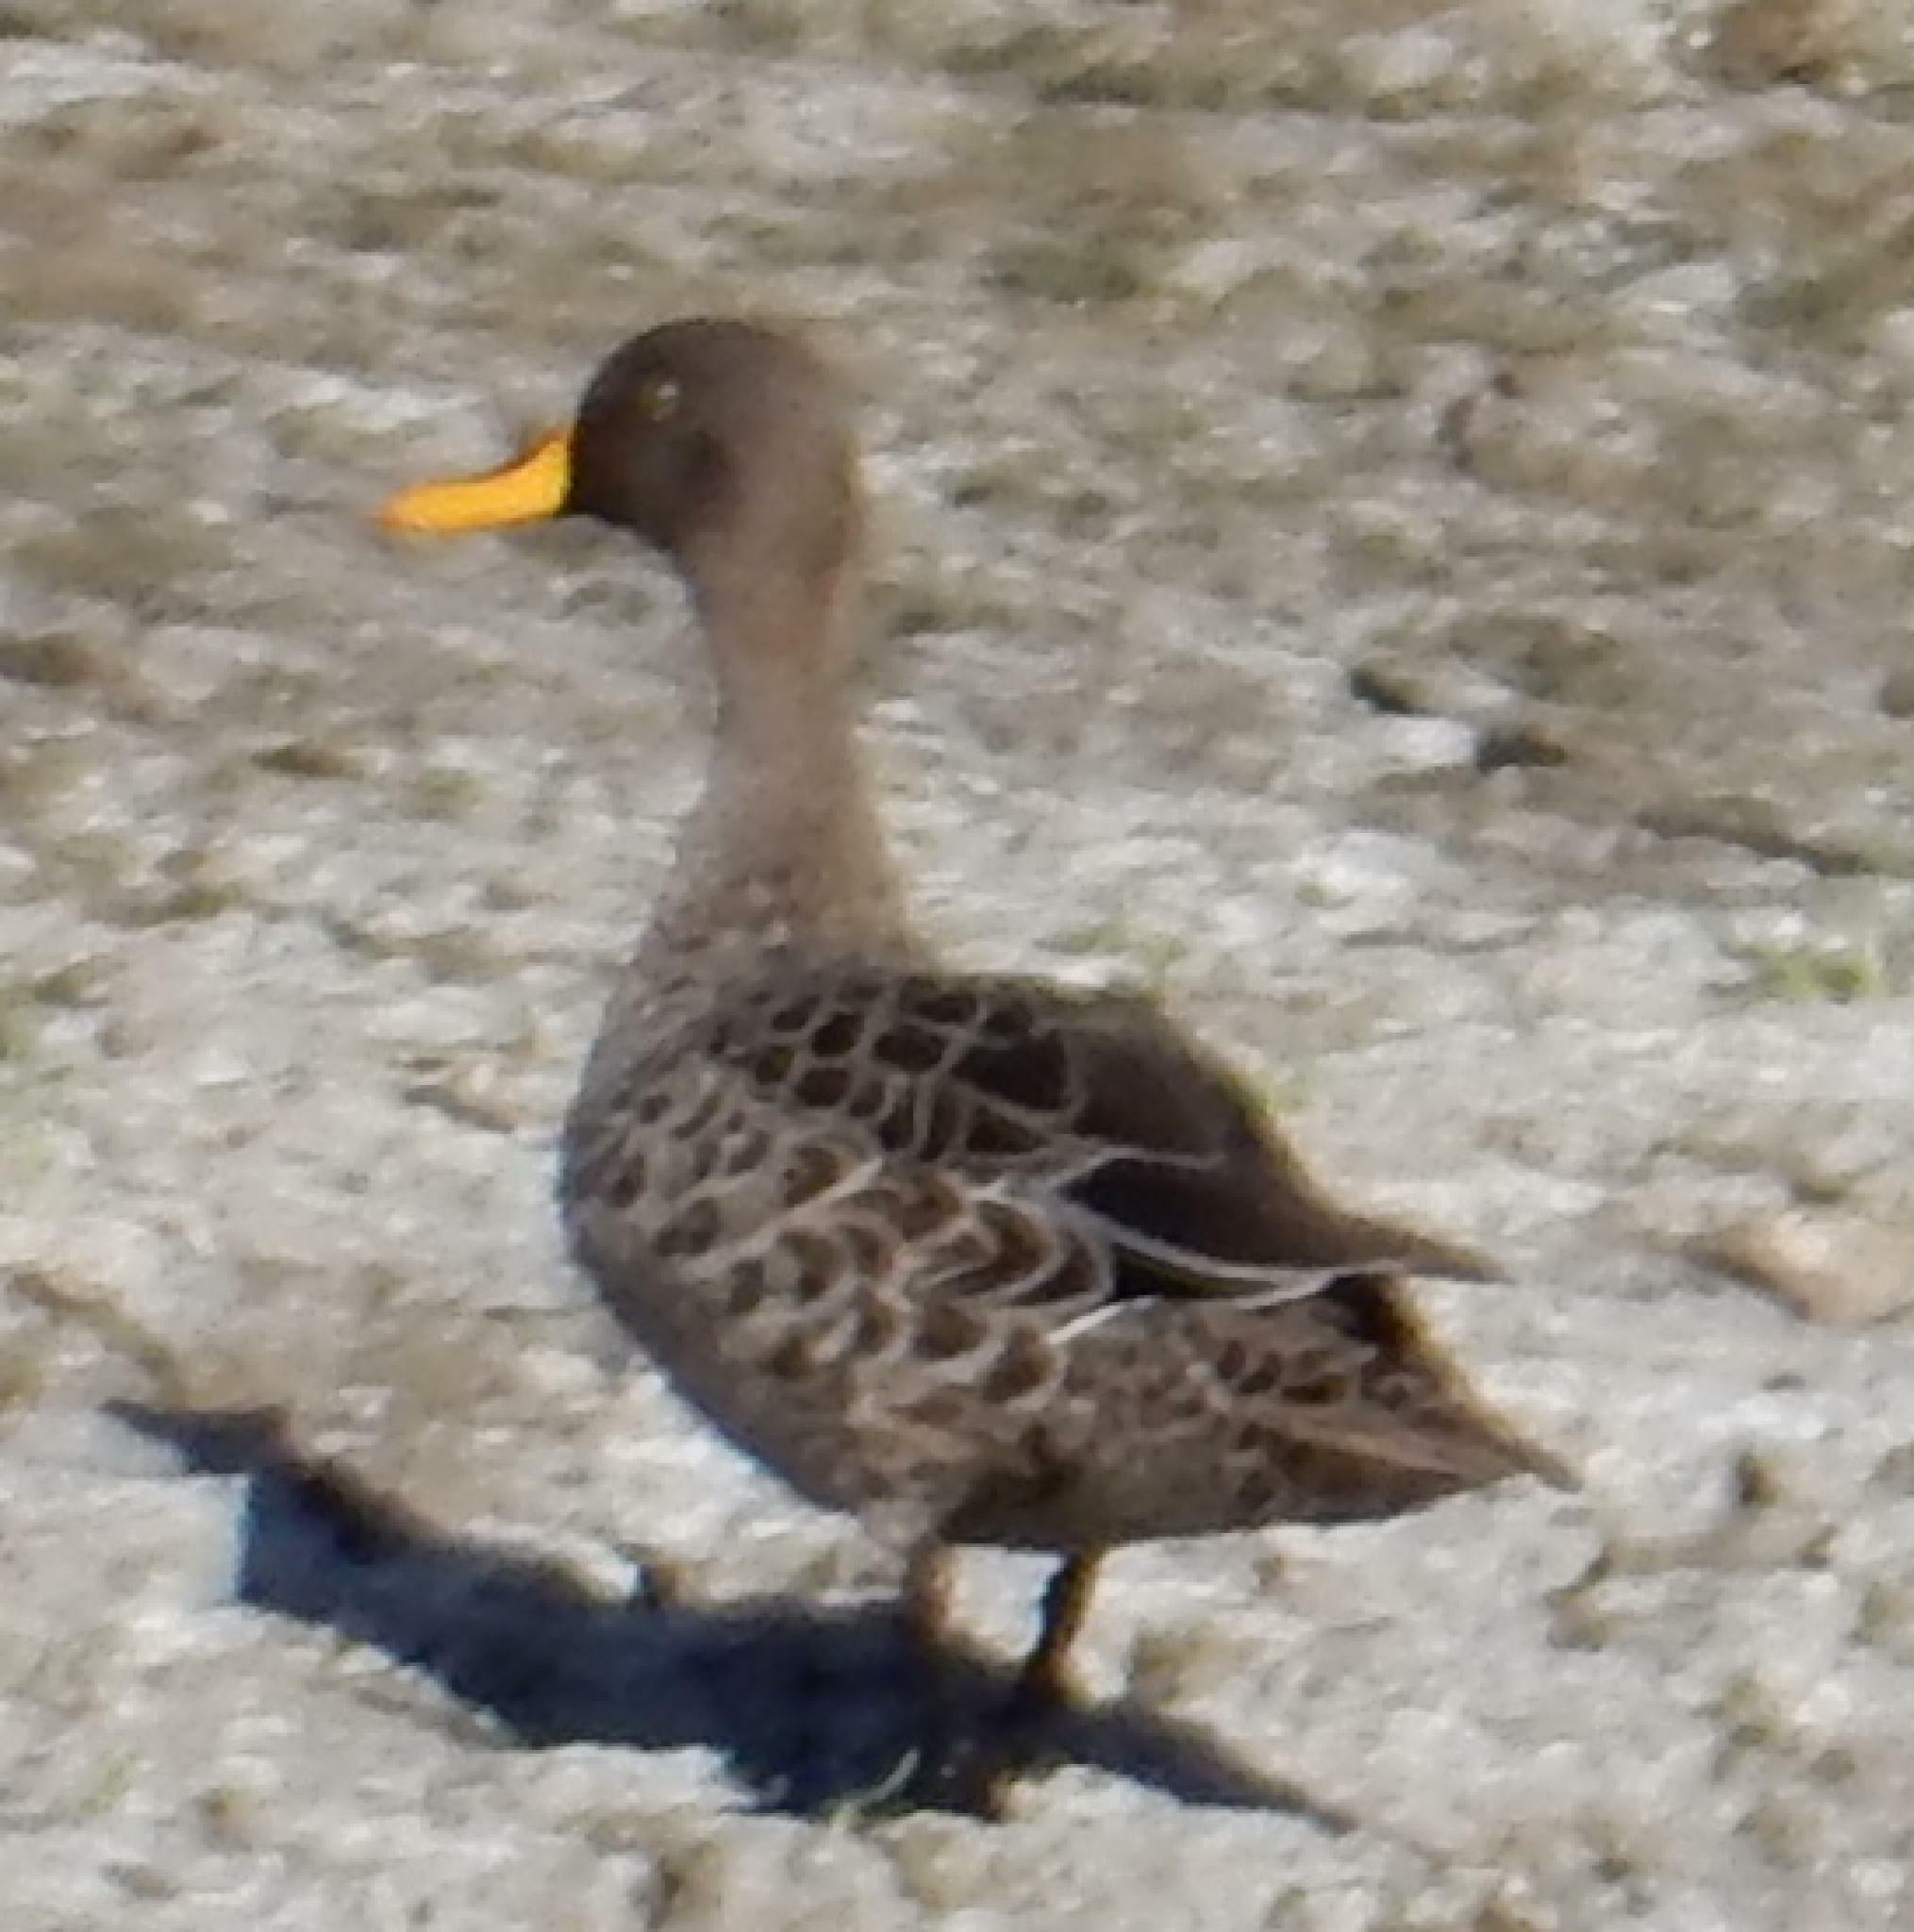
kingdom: Animalia
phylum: Chordata
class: Aves
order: Anseriformes
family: Anatidae
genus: Anas
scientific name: Anas undulata
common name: Yellow-billed duck
